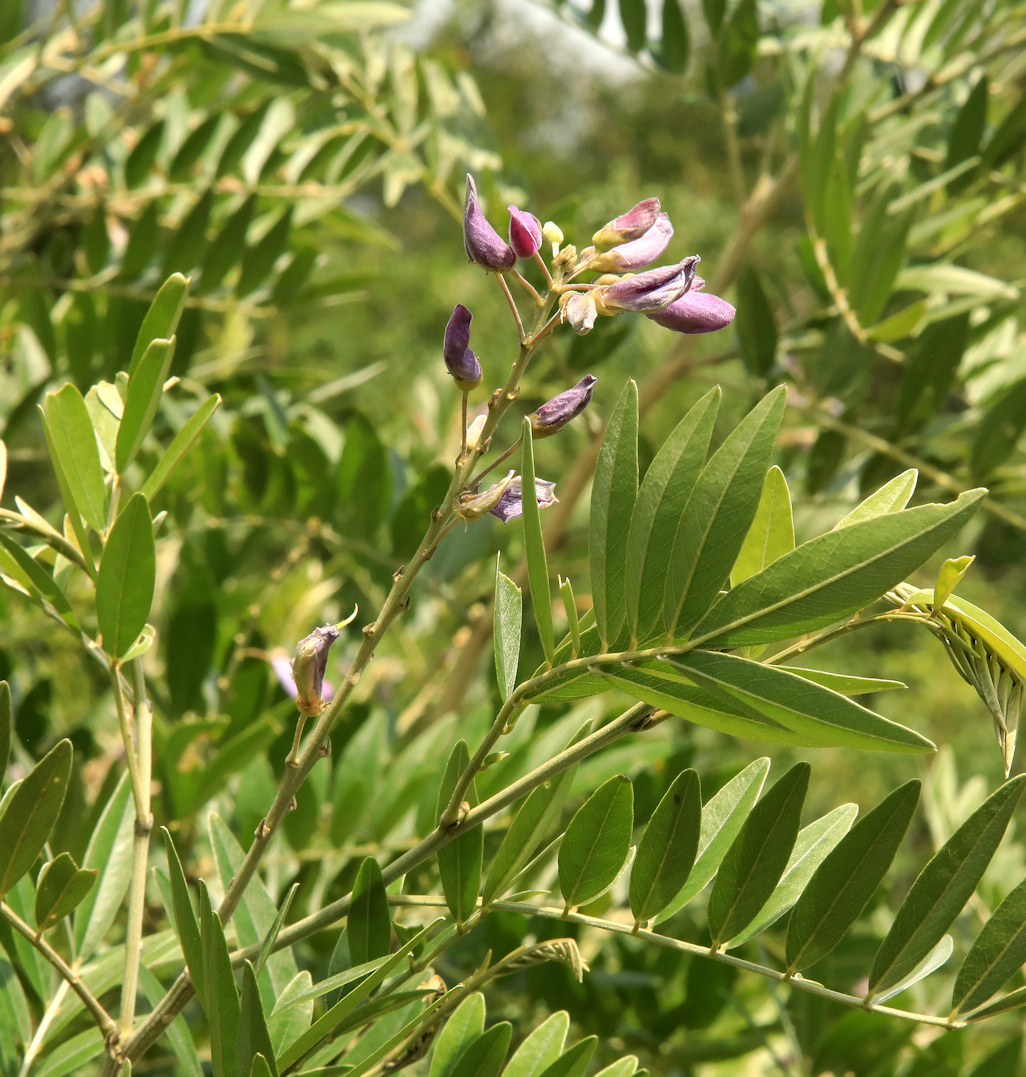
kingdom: Plantae
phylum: Tracheophyta
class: Magnoliopsida
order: Fabales
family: Fabaceae
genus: Mundulea
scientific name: Mundulea sericea
